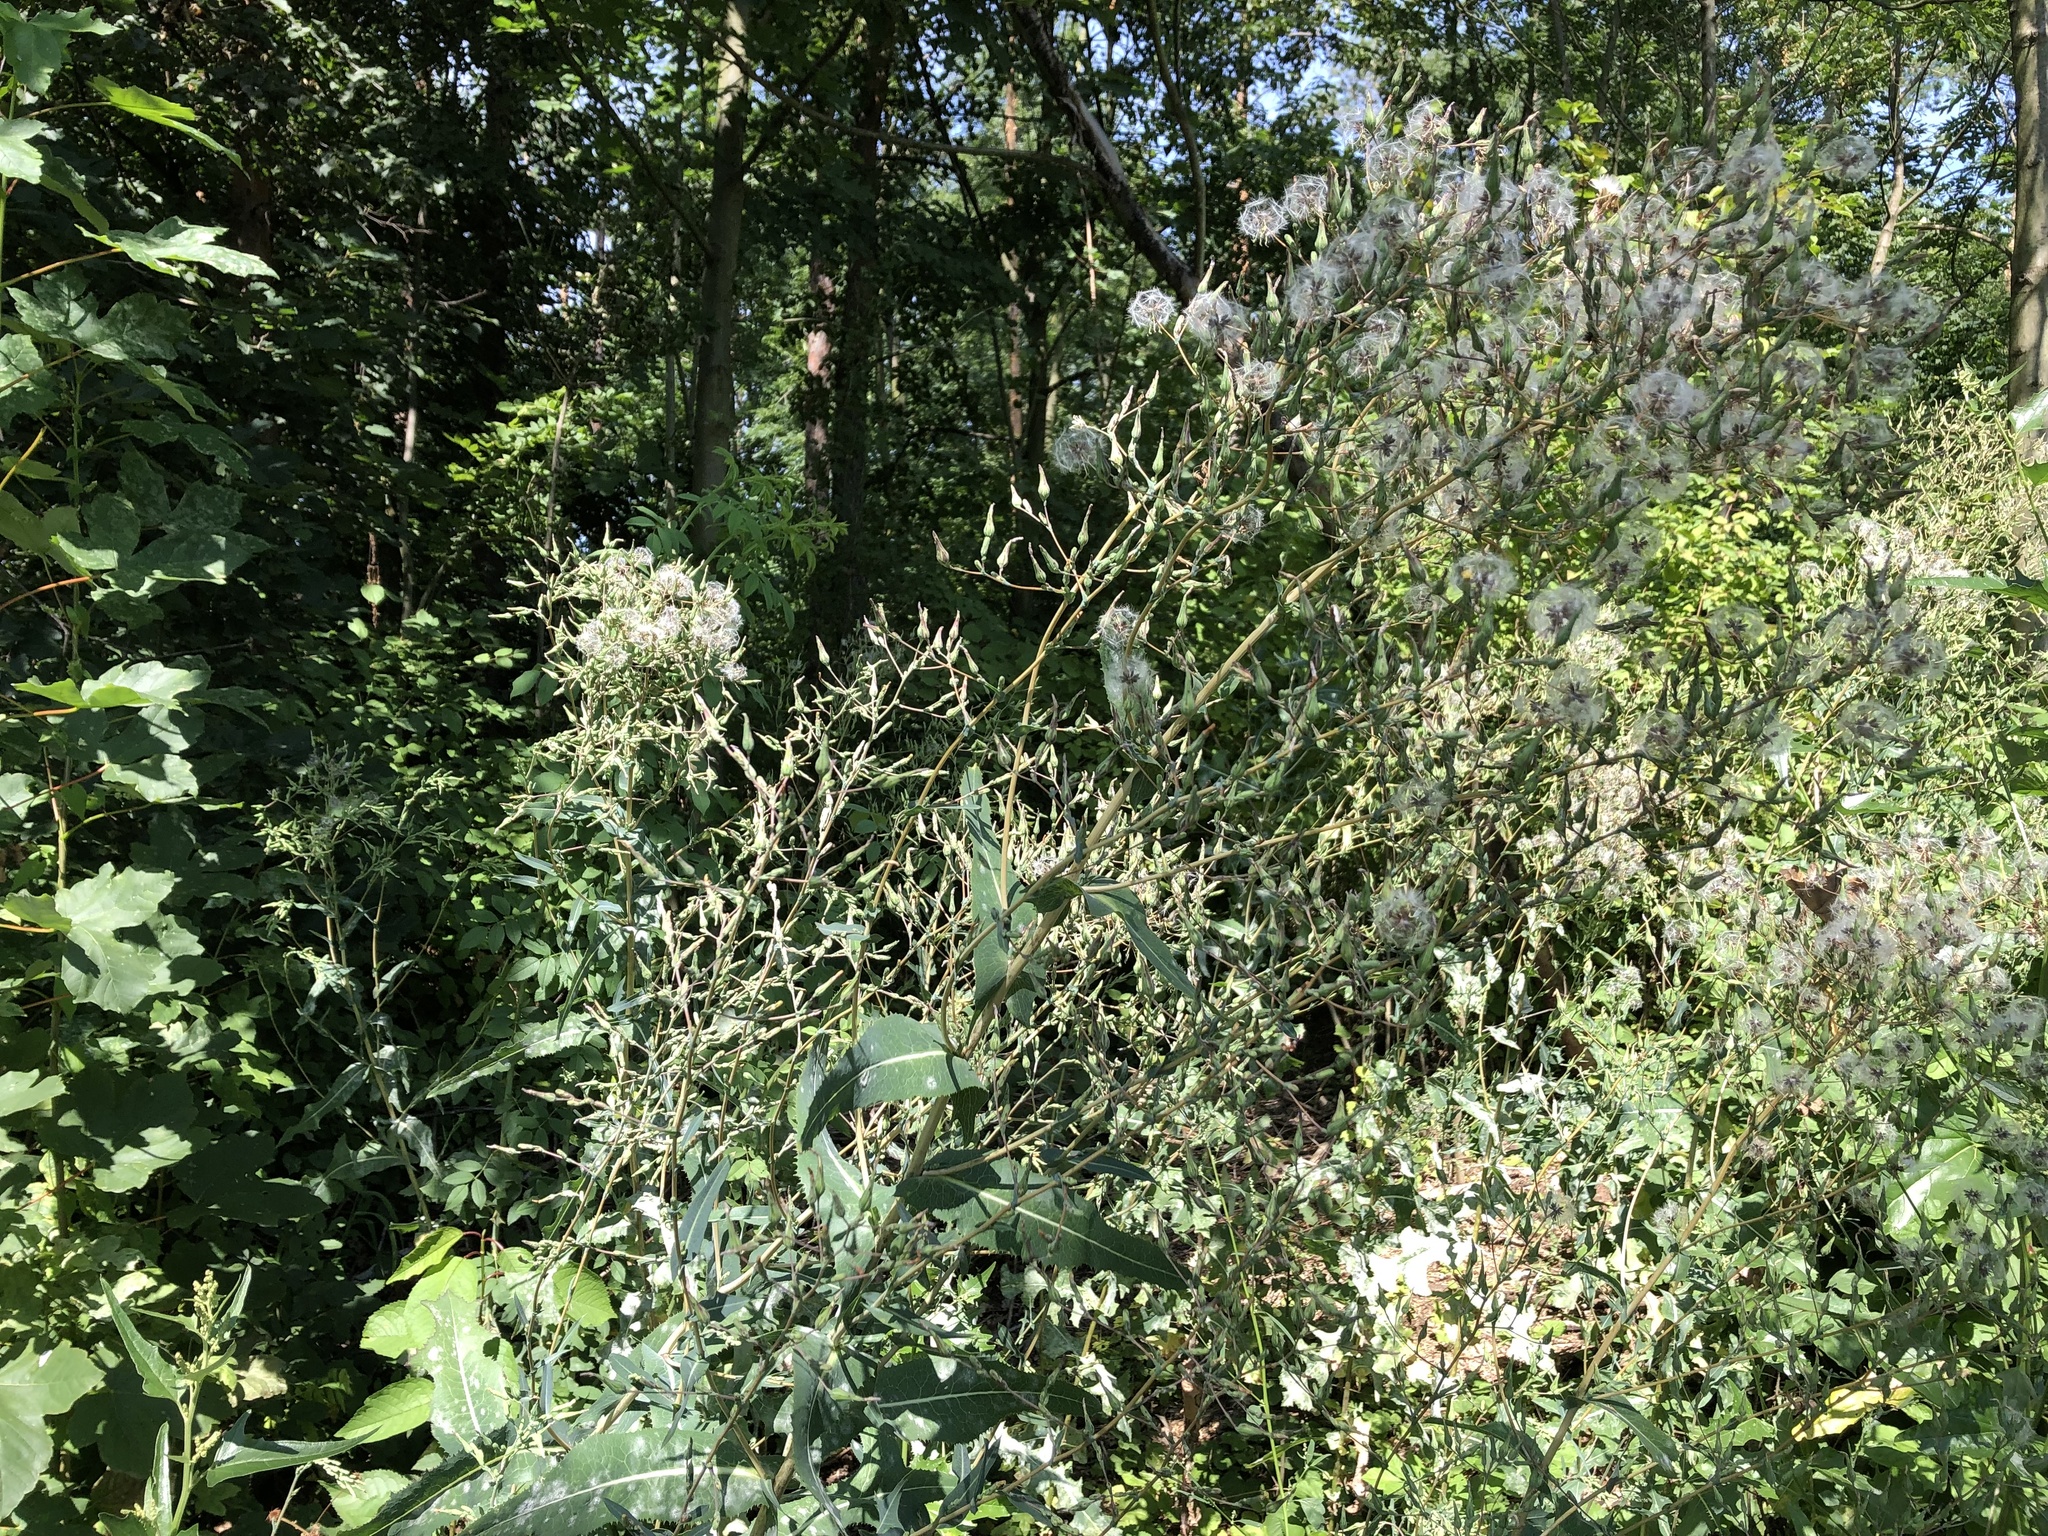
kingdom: Plantae
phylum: Tracheophyta
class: Magnoliopsida
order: Asterales
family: Asteraceae
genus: Lactuca
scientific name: Lactuca serriola
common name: Prickly lettuce
